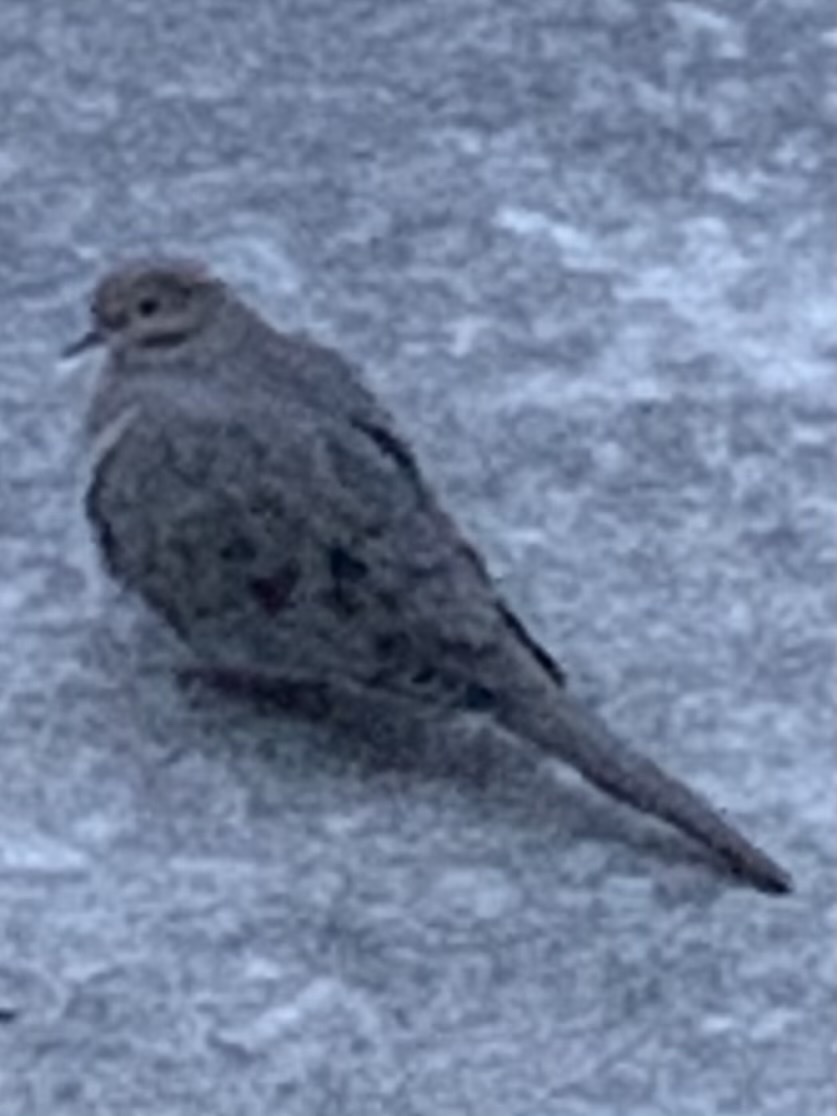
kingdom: Animalia
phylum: Chordata
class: Aves
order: Columbiformes
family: Columbidae
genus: Zenaida
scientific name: Zenaida macroura
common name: Mourning dove
